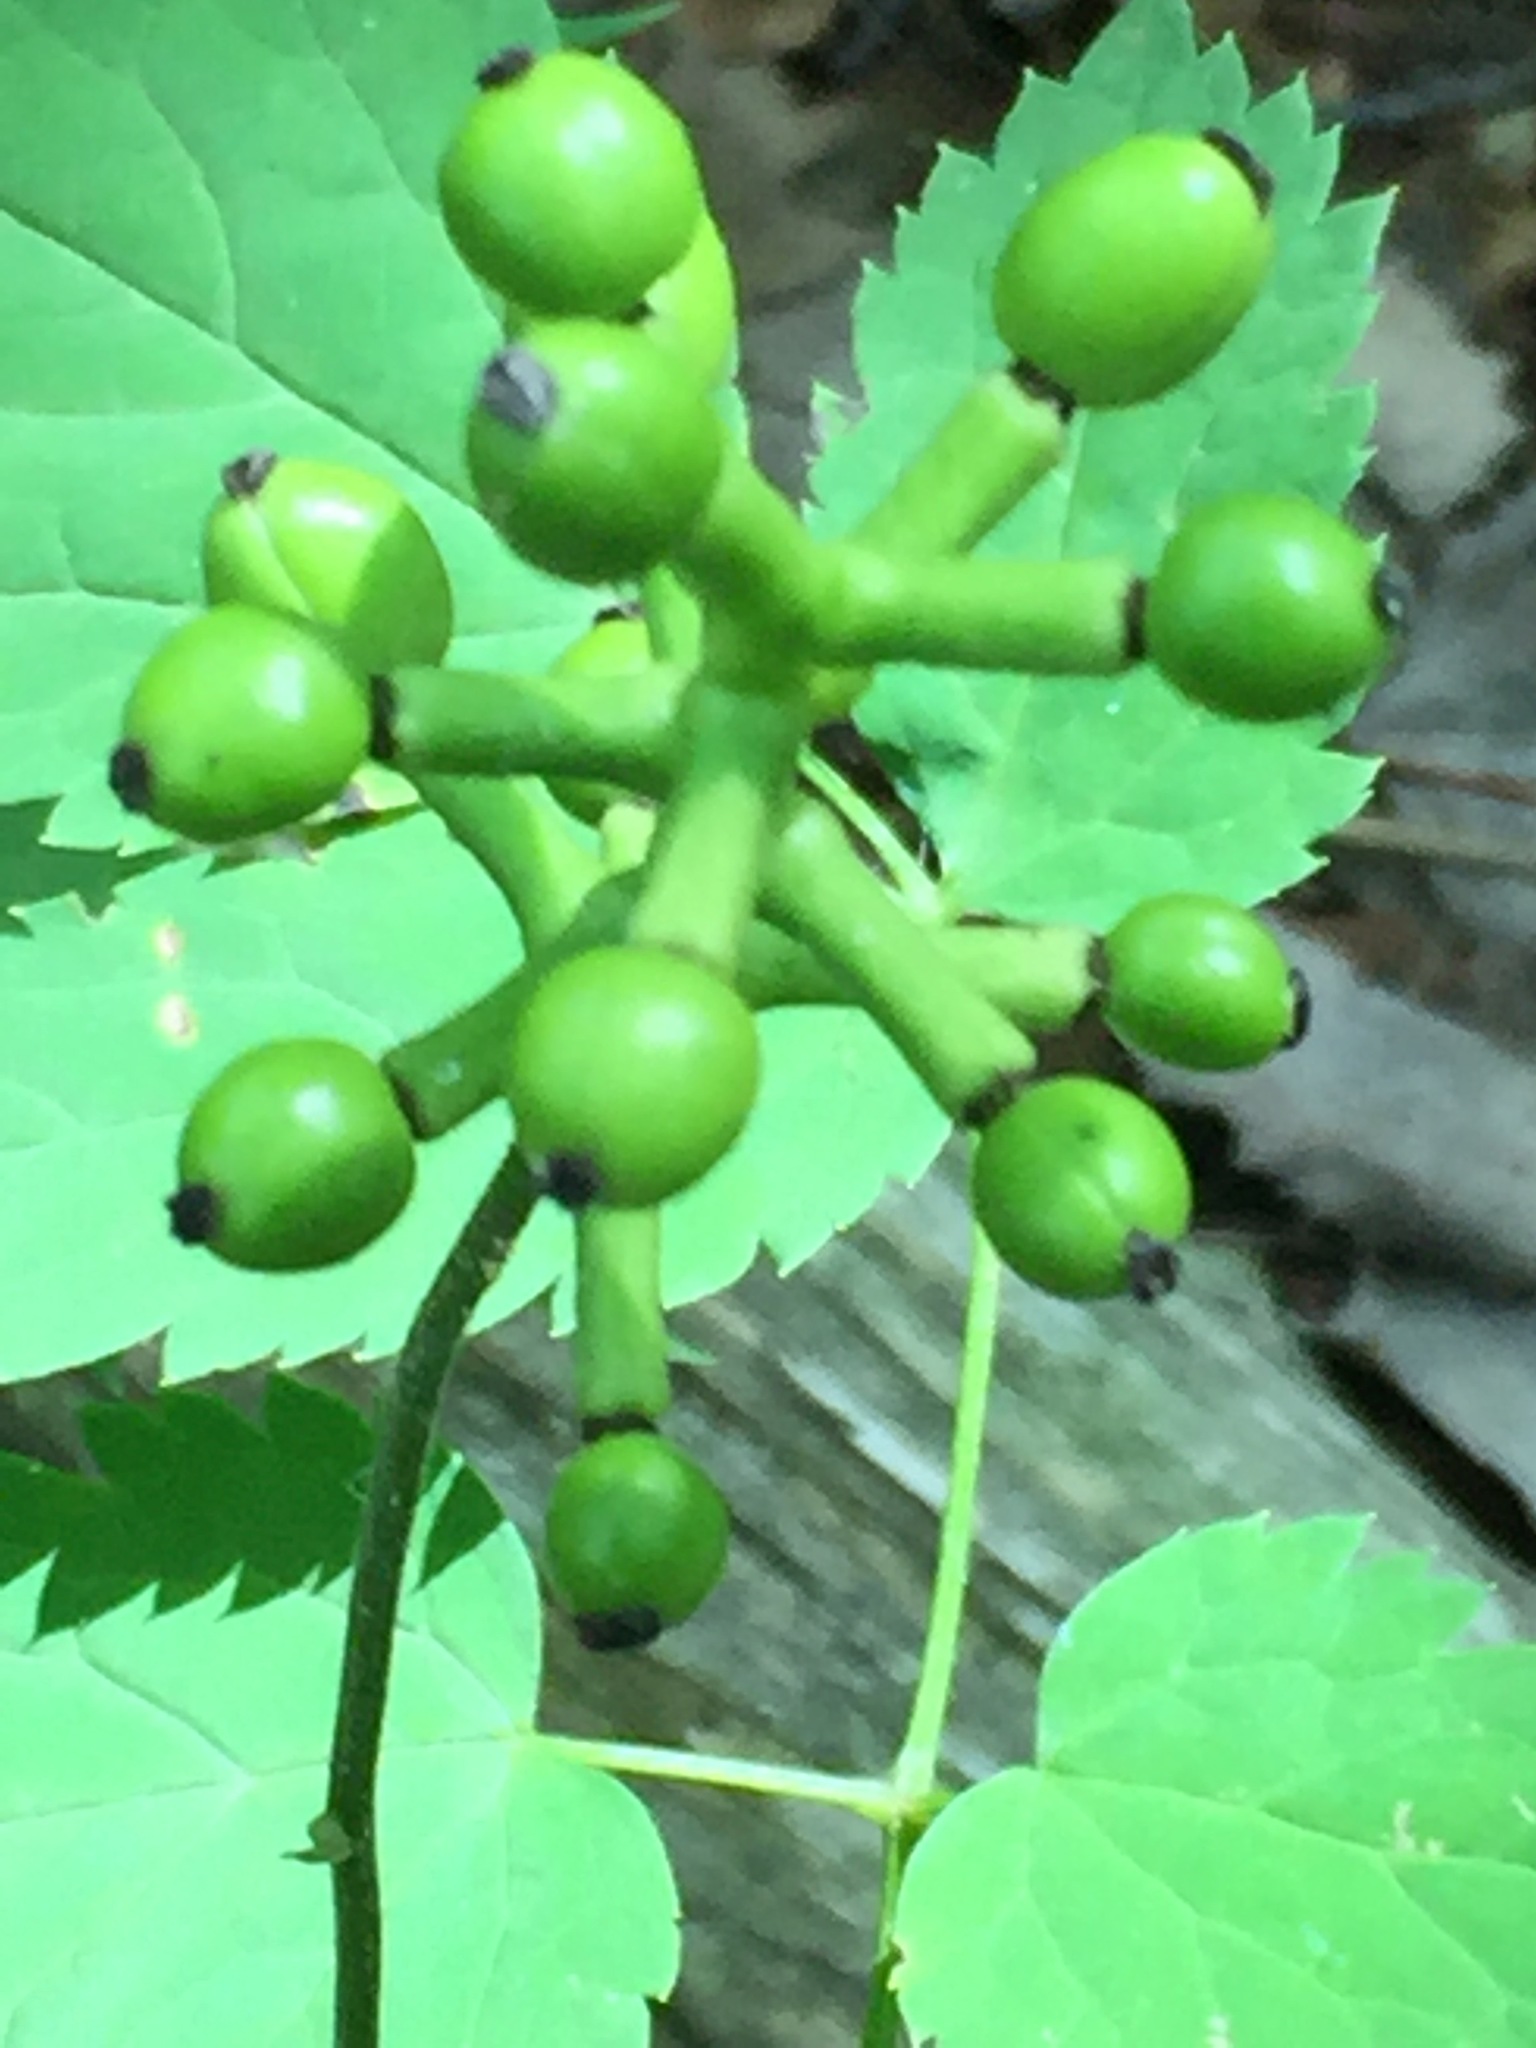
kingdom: Plantae
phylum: Tracheophyta
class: Magnoliopsida
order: Ranunculales
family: Ranunculaceae
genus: Actaea
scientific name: Actaea pachypoda
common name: Doll's-eyes
